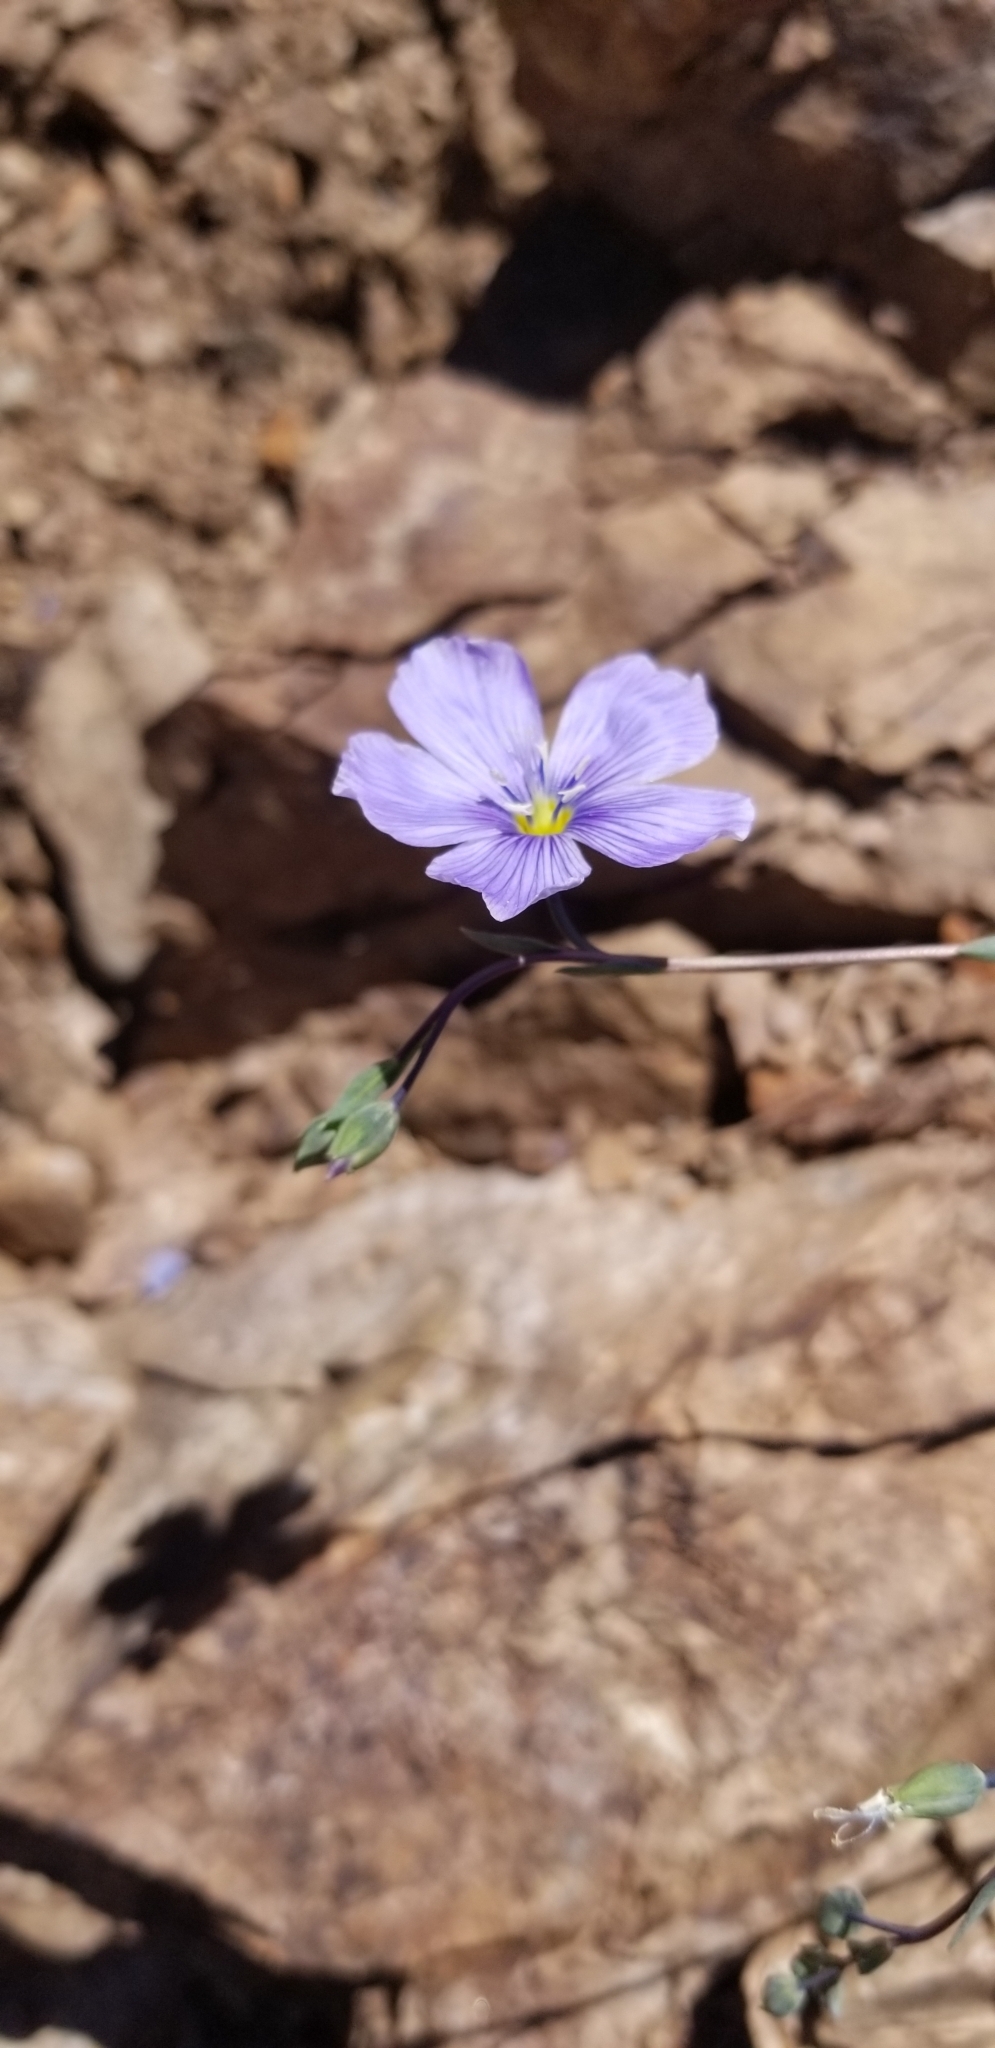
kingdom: Plantae
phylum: Tracheophyta
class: Magnoliopsida
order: Malpighiales
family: Linaceae
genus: Linum
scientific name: Linum lewisii
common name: Prairie flax
